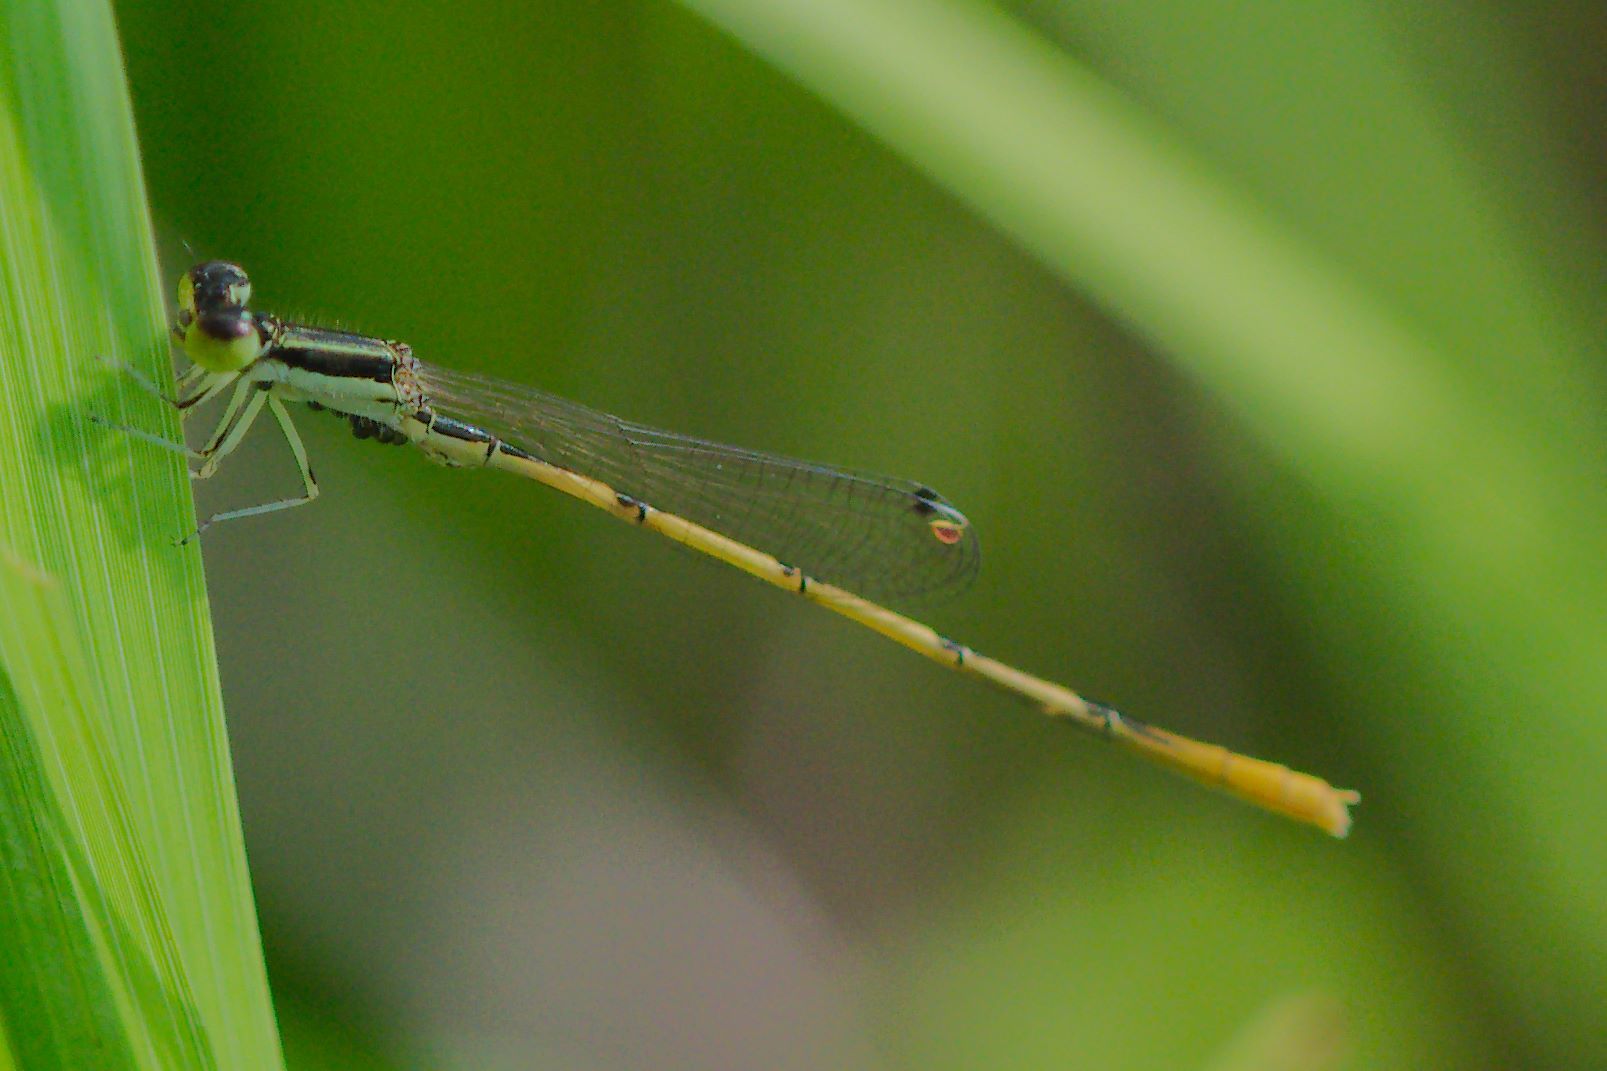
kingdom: Animalia
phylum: Arthropoda
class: Insecta
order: Odonata
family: Coenagrionidae
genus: Ischnura
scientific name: Ischnura hastata
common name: Citrine forktail
